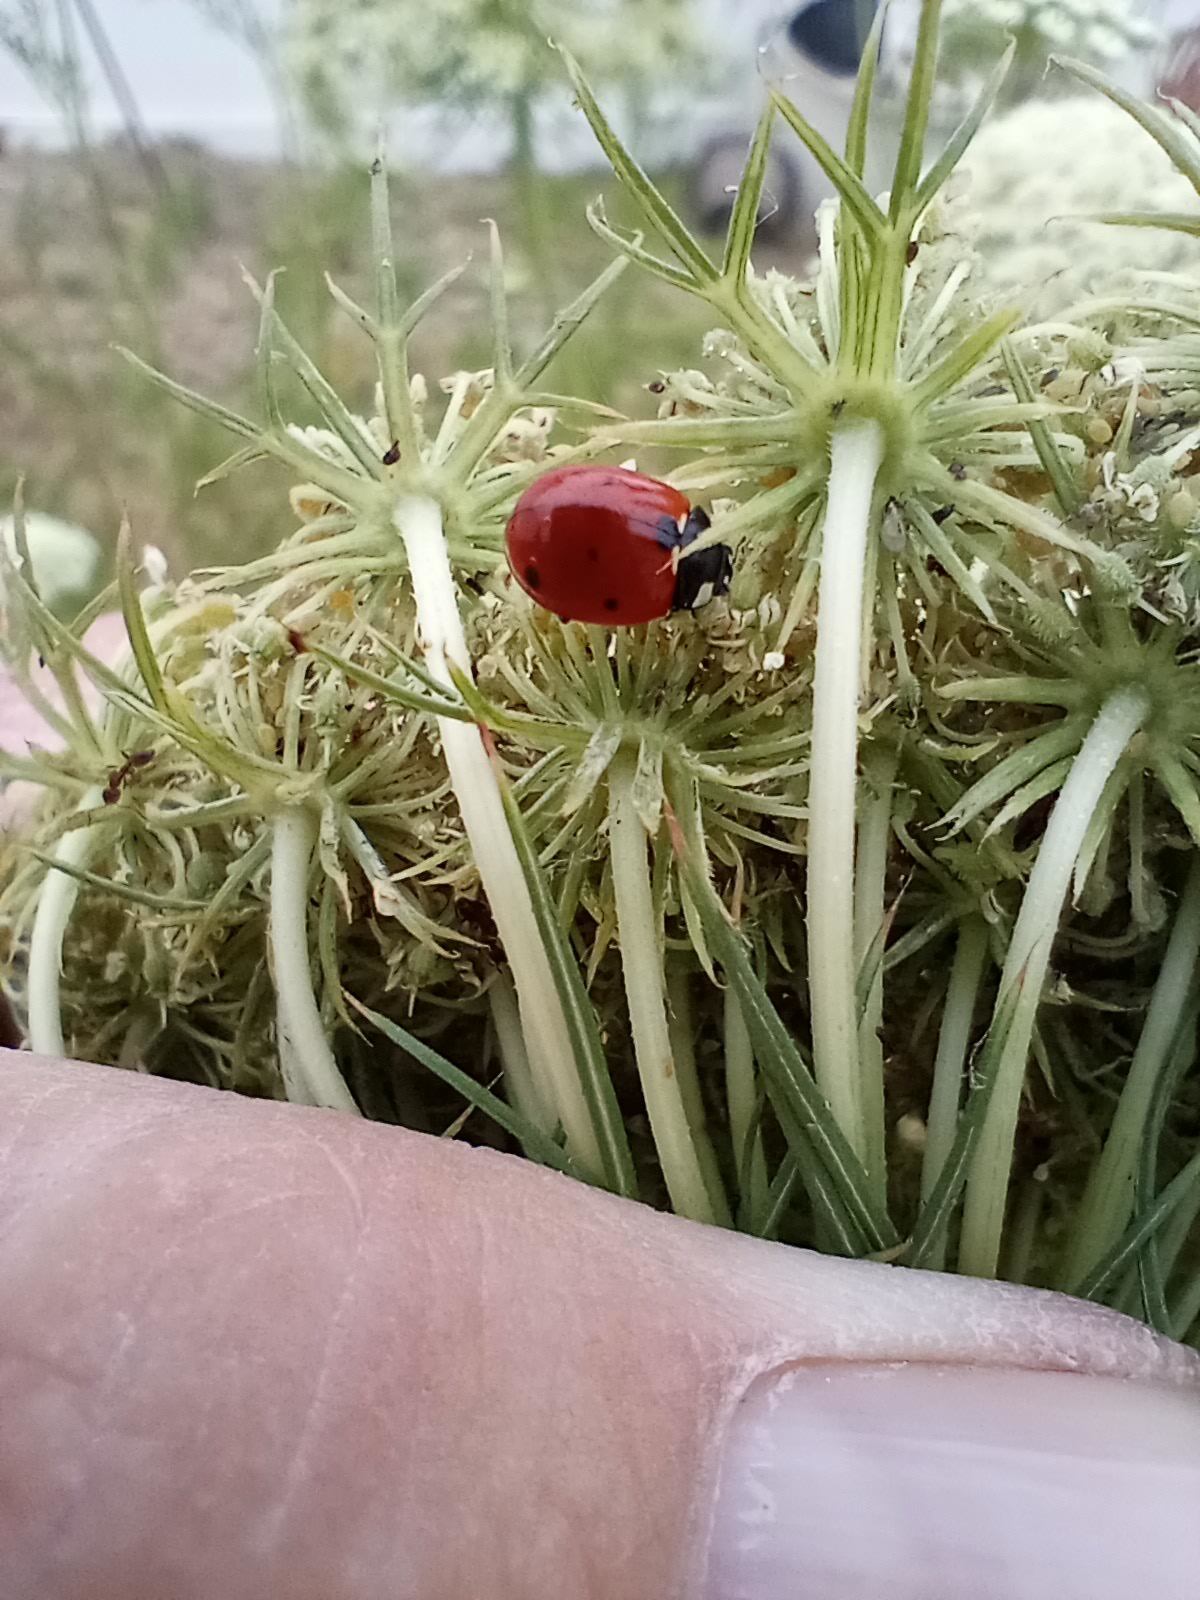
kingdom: Animalia
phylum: Arthropoda
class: Insecta
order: Coleoptera
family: Coccinellidae
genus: Coccinella
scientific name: Coccinella septempunctata
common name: Sevenspotted lady beetle
